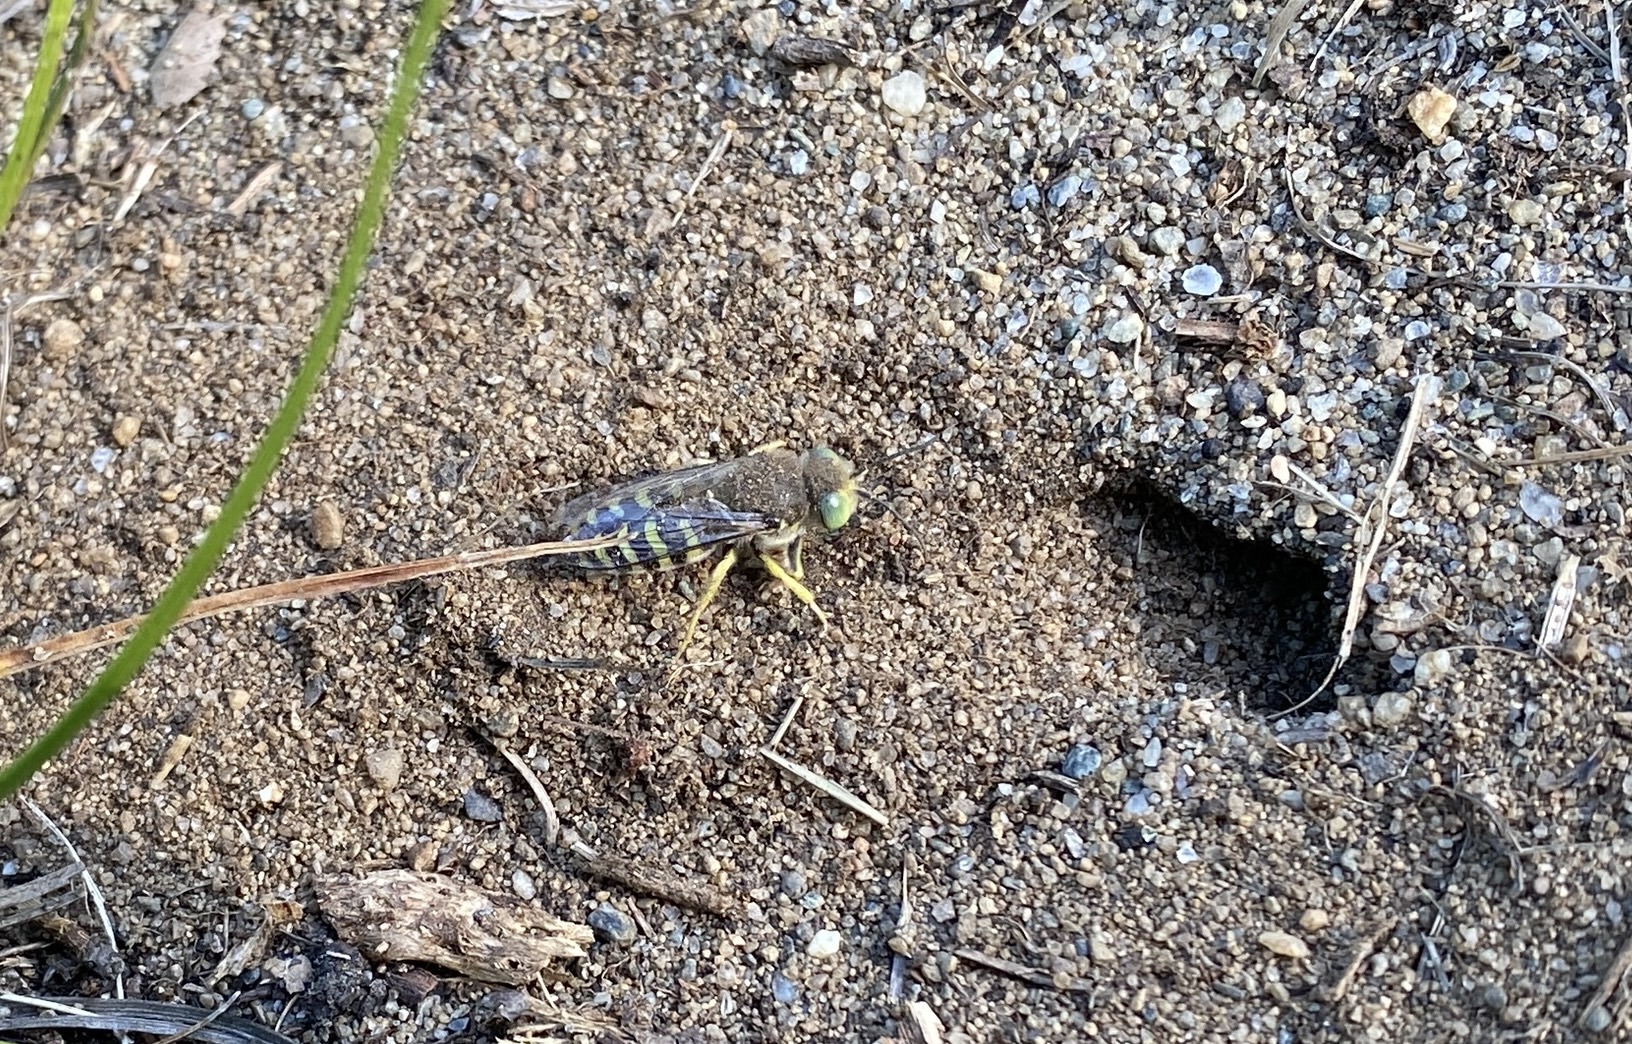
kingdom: Animalia
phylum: Arthropoda
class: Insecta
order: Hymenoptera
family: Crabronidae
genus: Bembix
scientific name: Bembix americana
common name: American sand wasp
